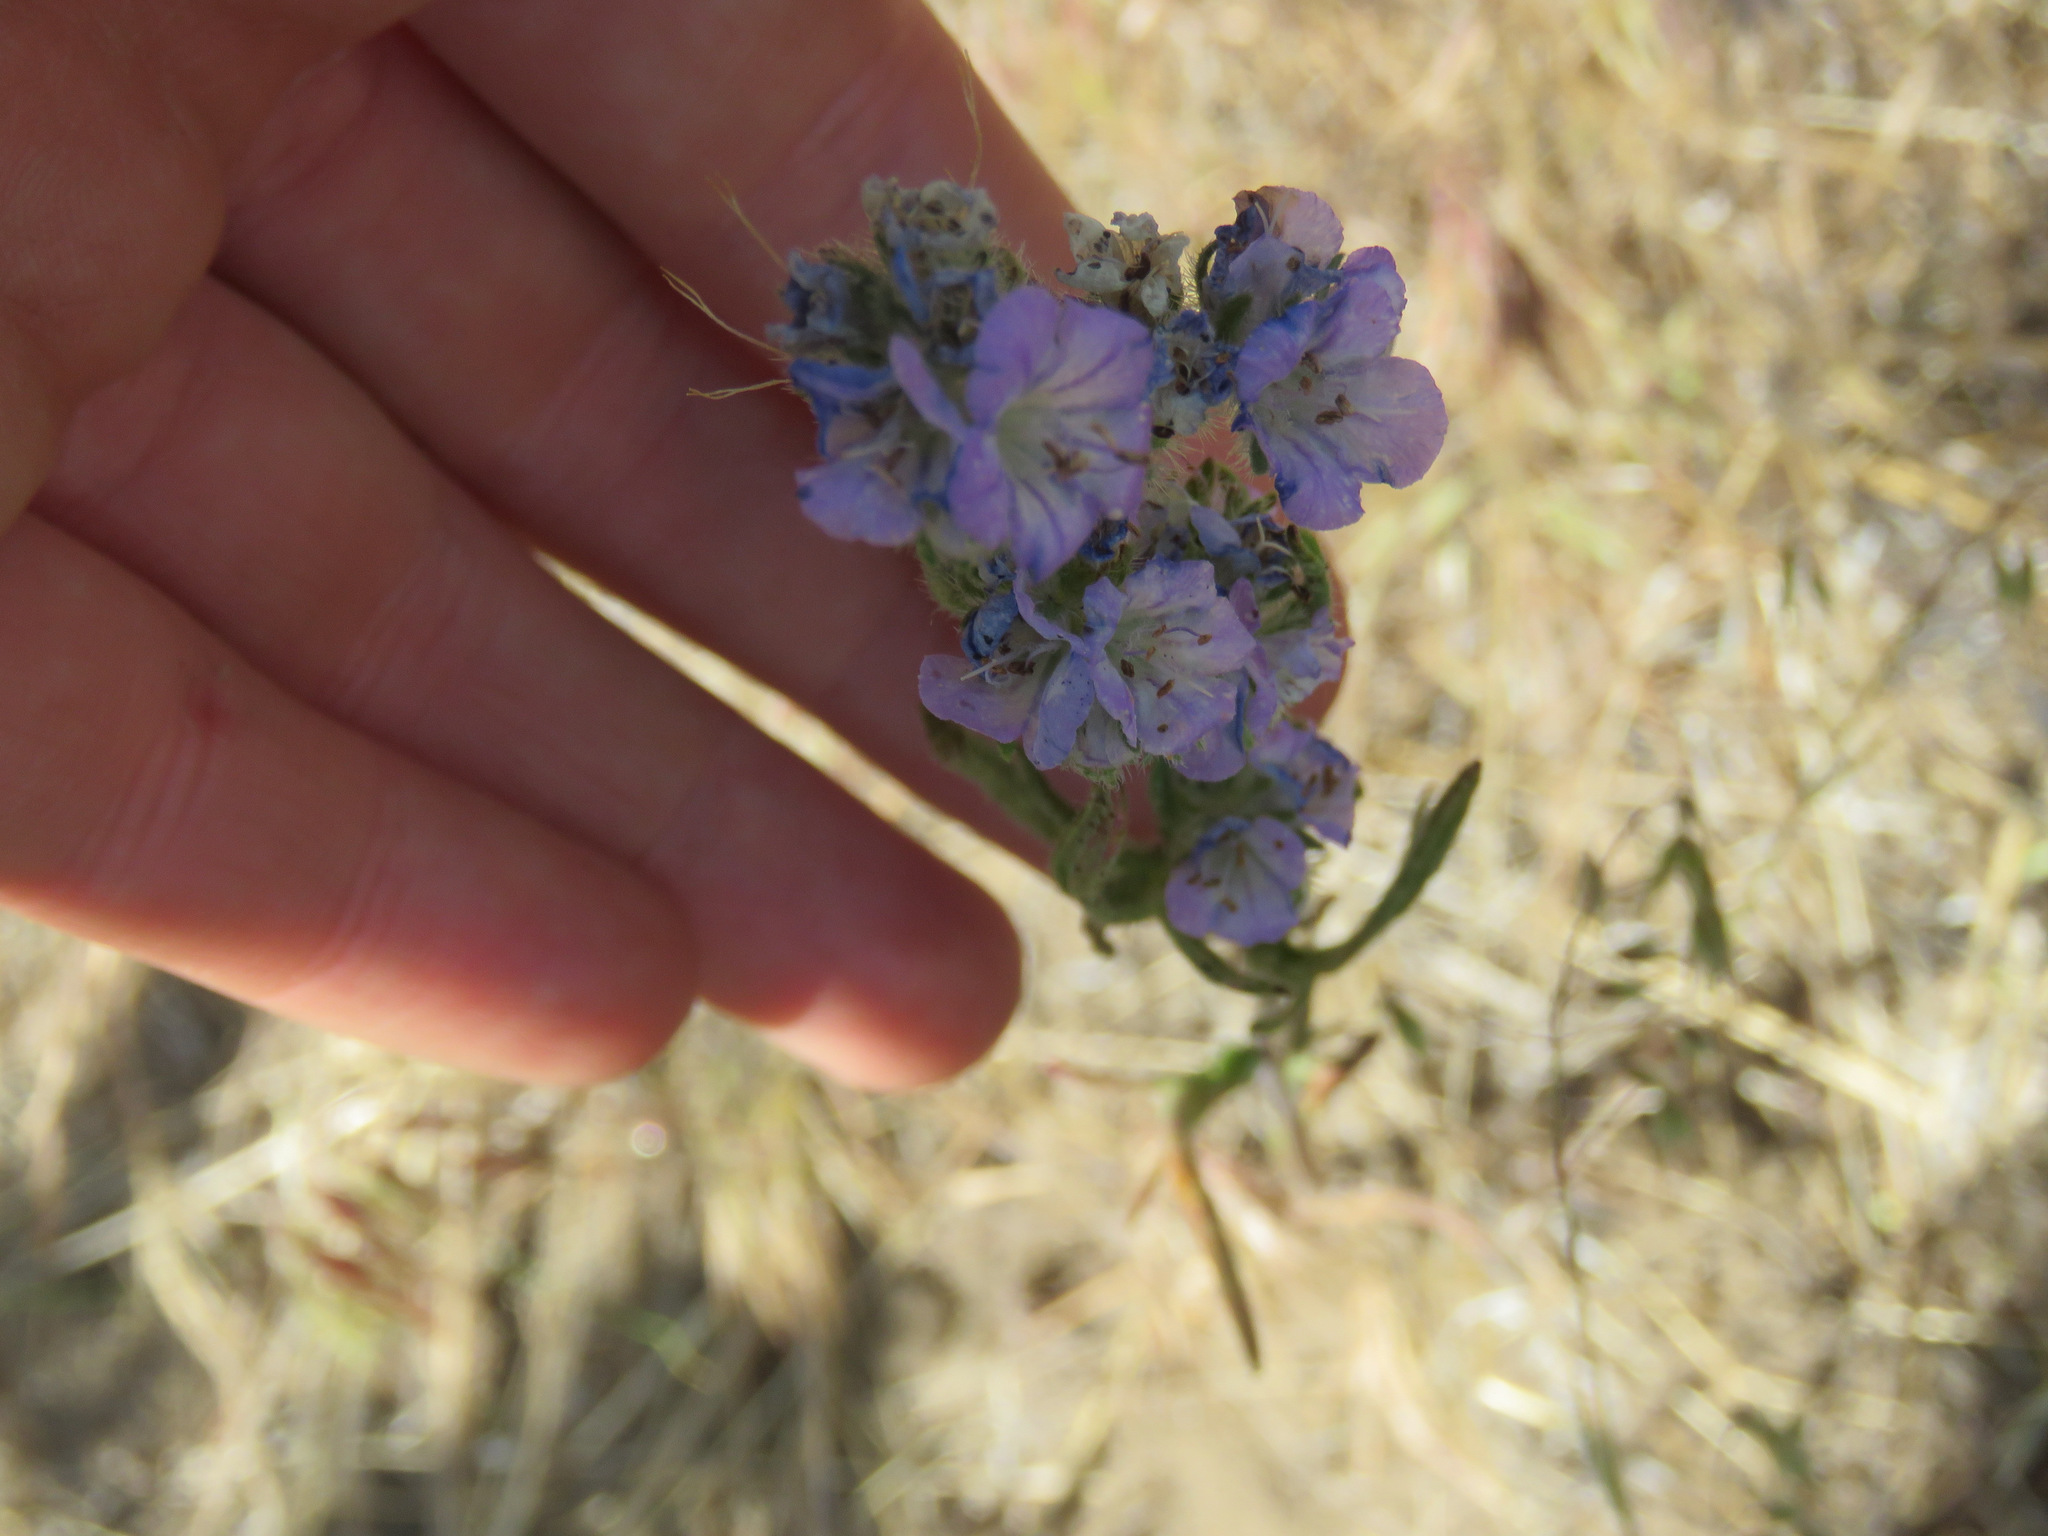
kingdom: Plantae
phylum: Tracheophyta
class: Magnoliopsida
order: Boraginales
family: Hydrophyllaceae
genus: Phacelia
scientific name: Phacelia linearis
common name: Linear-leaved phacelia
